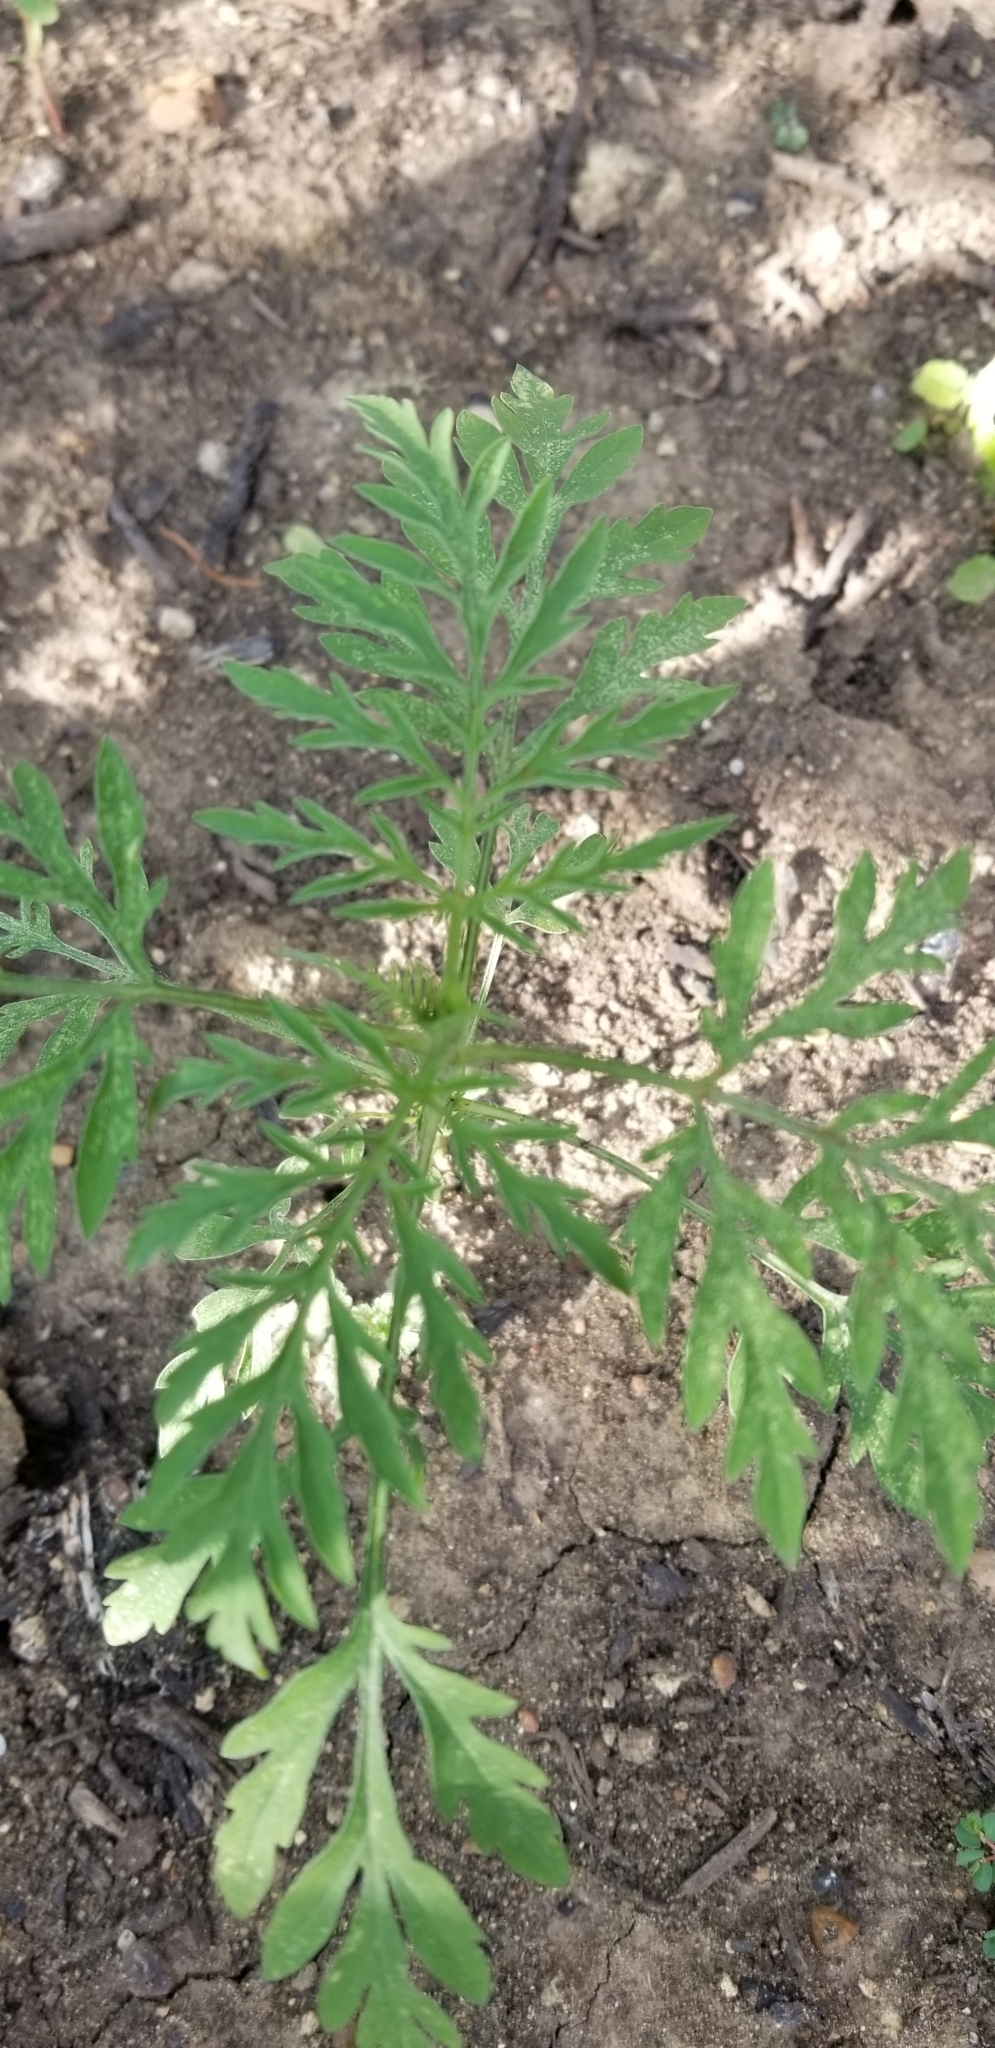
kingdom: Plantae
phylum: Tracheophyta
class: Magnoliopsida
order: Asterales
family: Asteraceae
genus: Ambrosia
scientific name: Ambrosia artemisiifolia
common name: Annual ragweed
